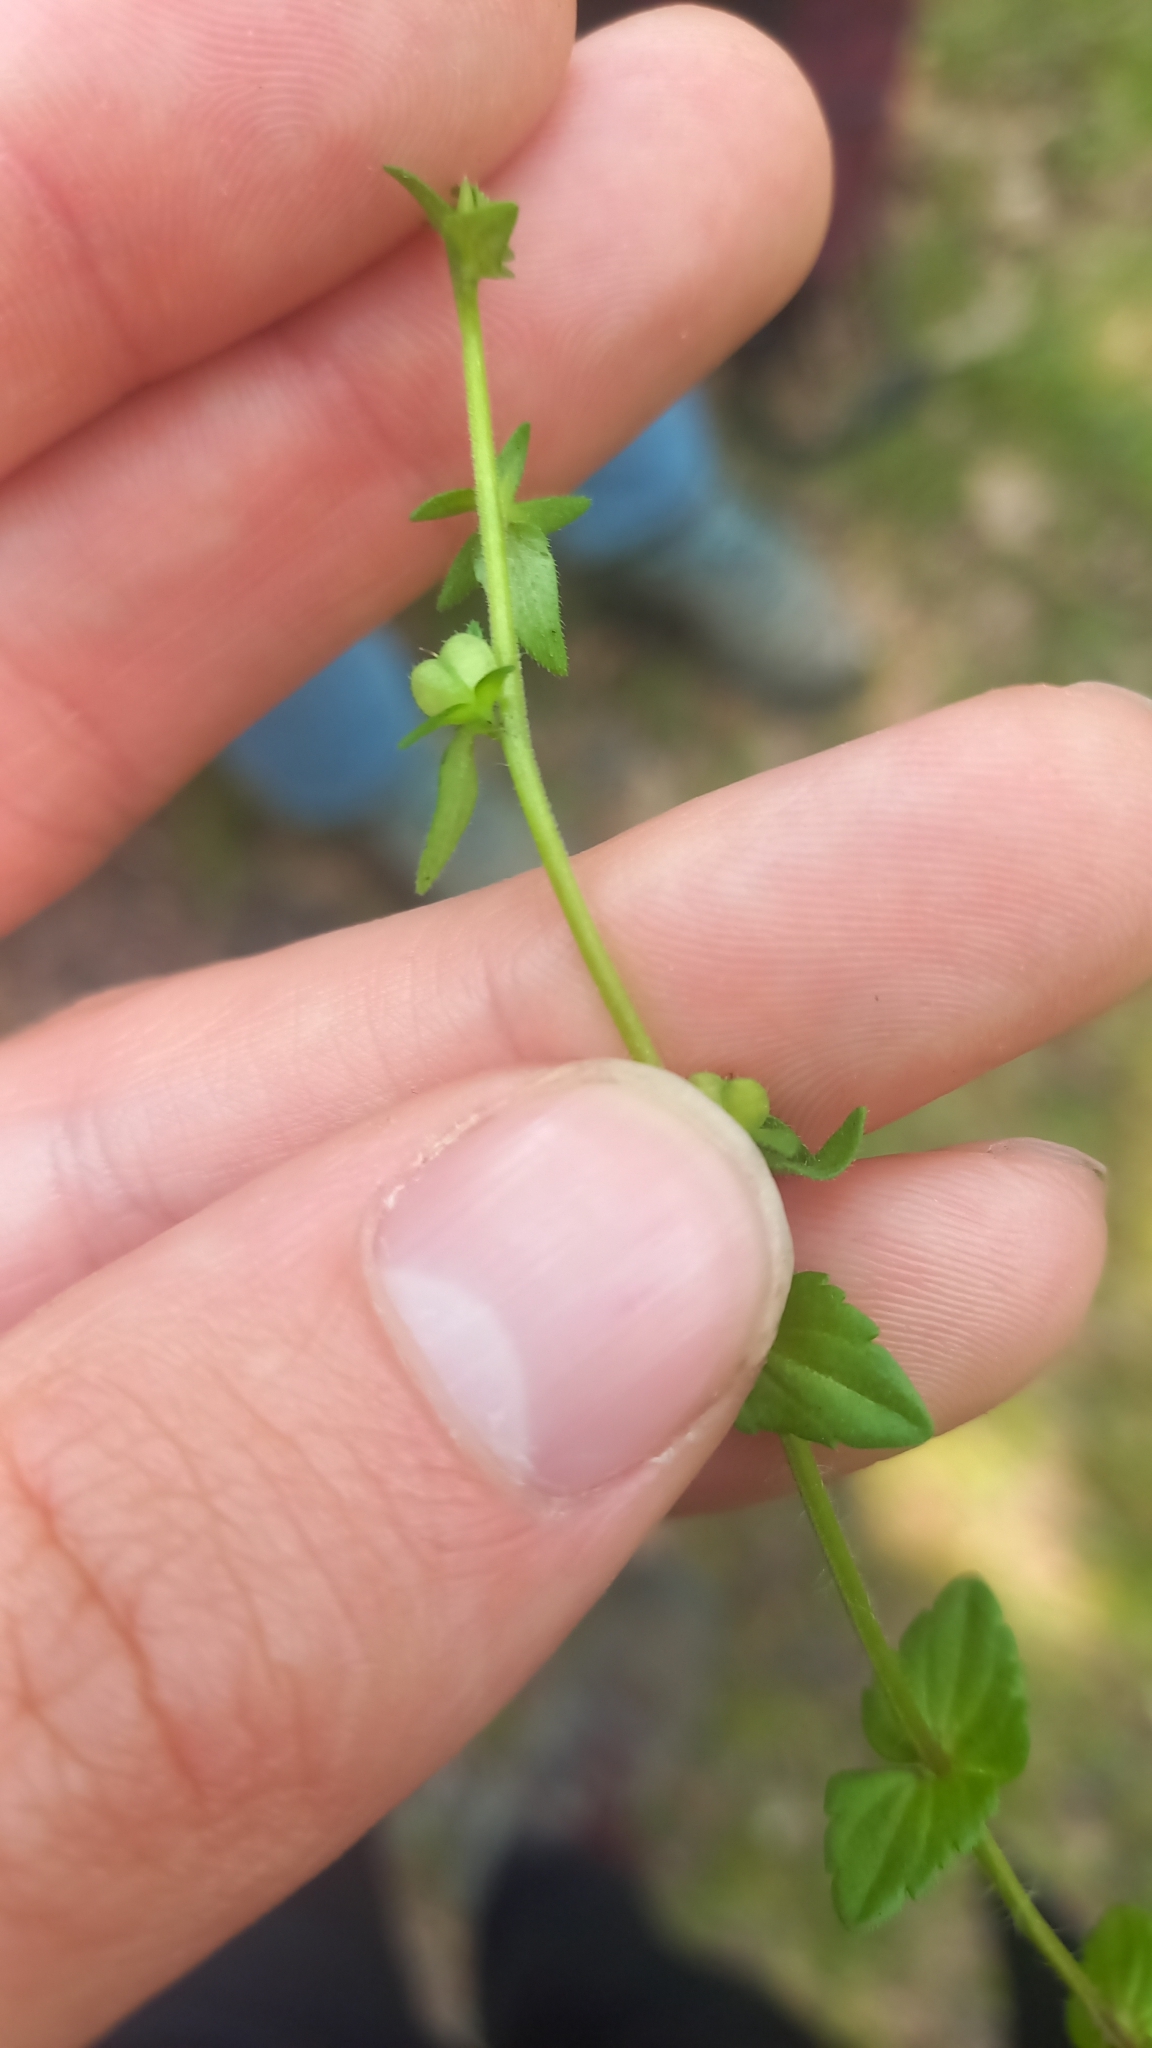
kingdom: Plantae
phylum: Tracheophyta
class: Magnoliopsida
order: Lamiales
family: Plantaginaceae
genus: Veronica
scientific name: Veronica arvensis
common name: Corn speedwell
